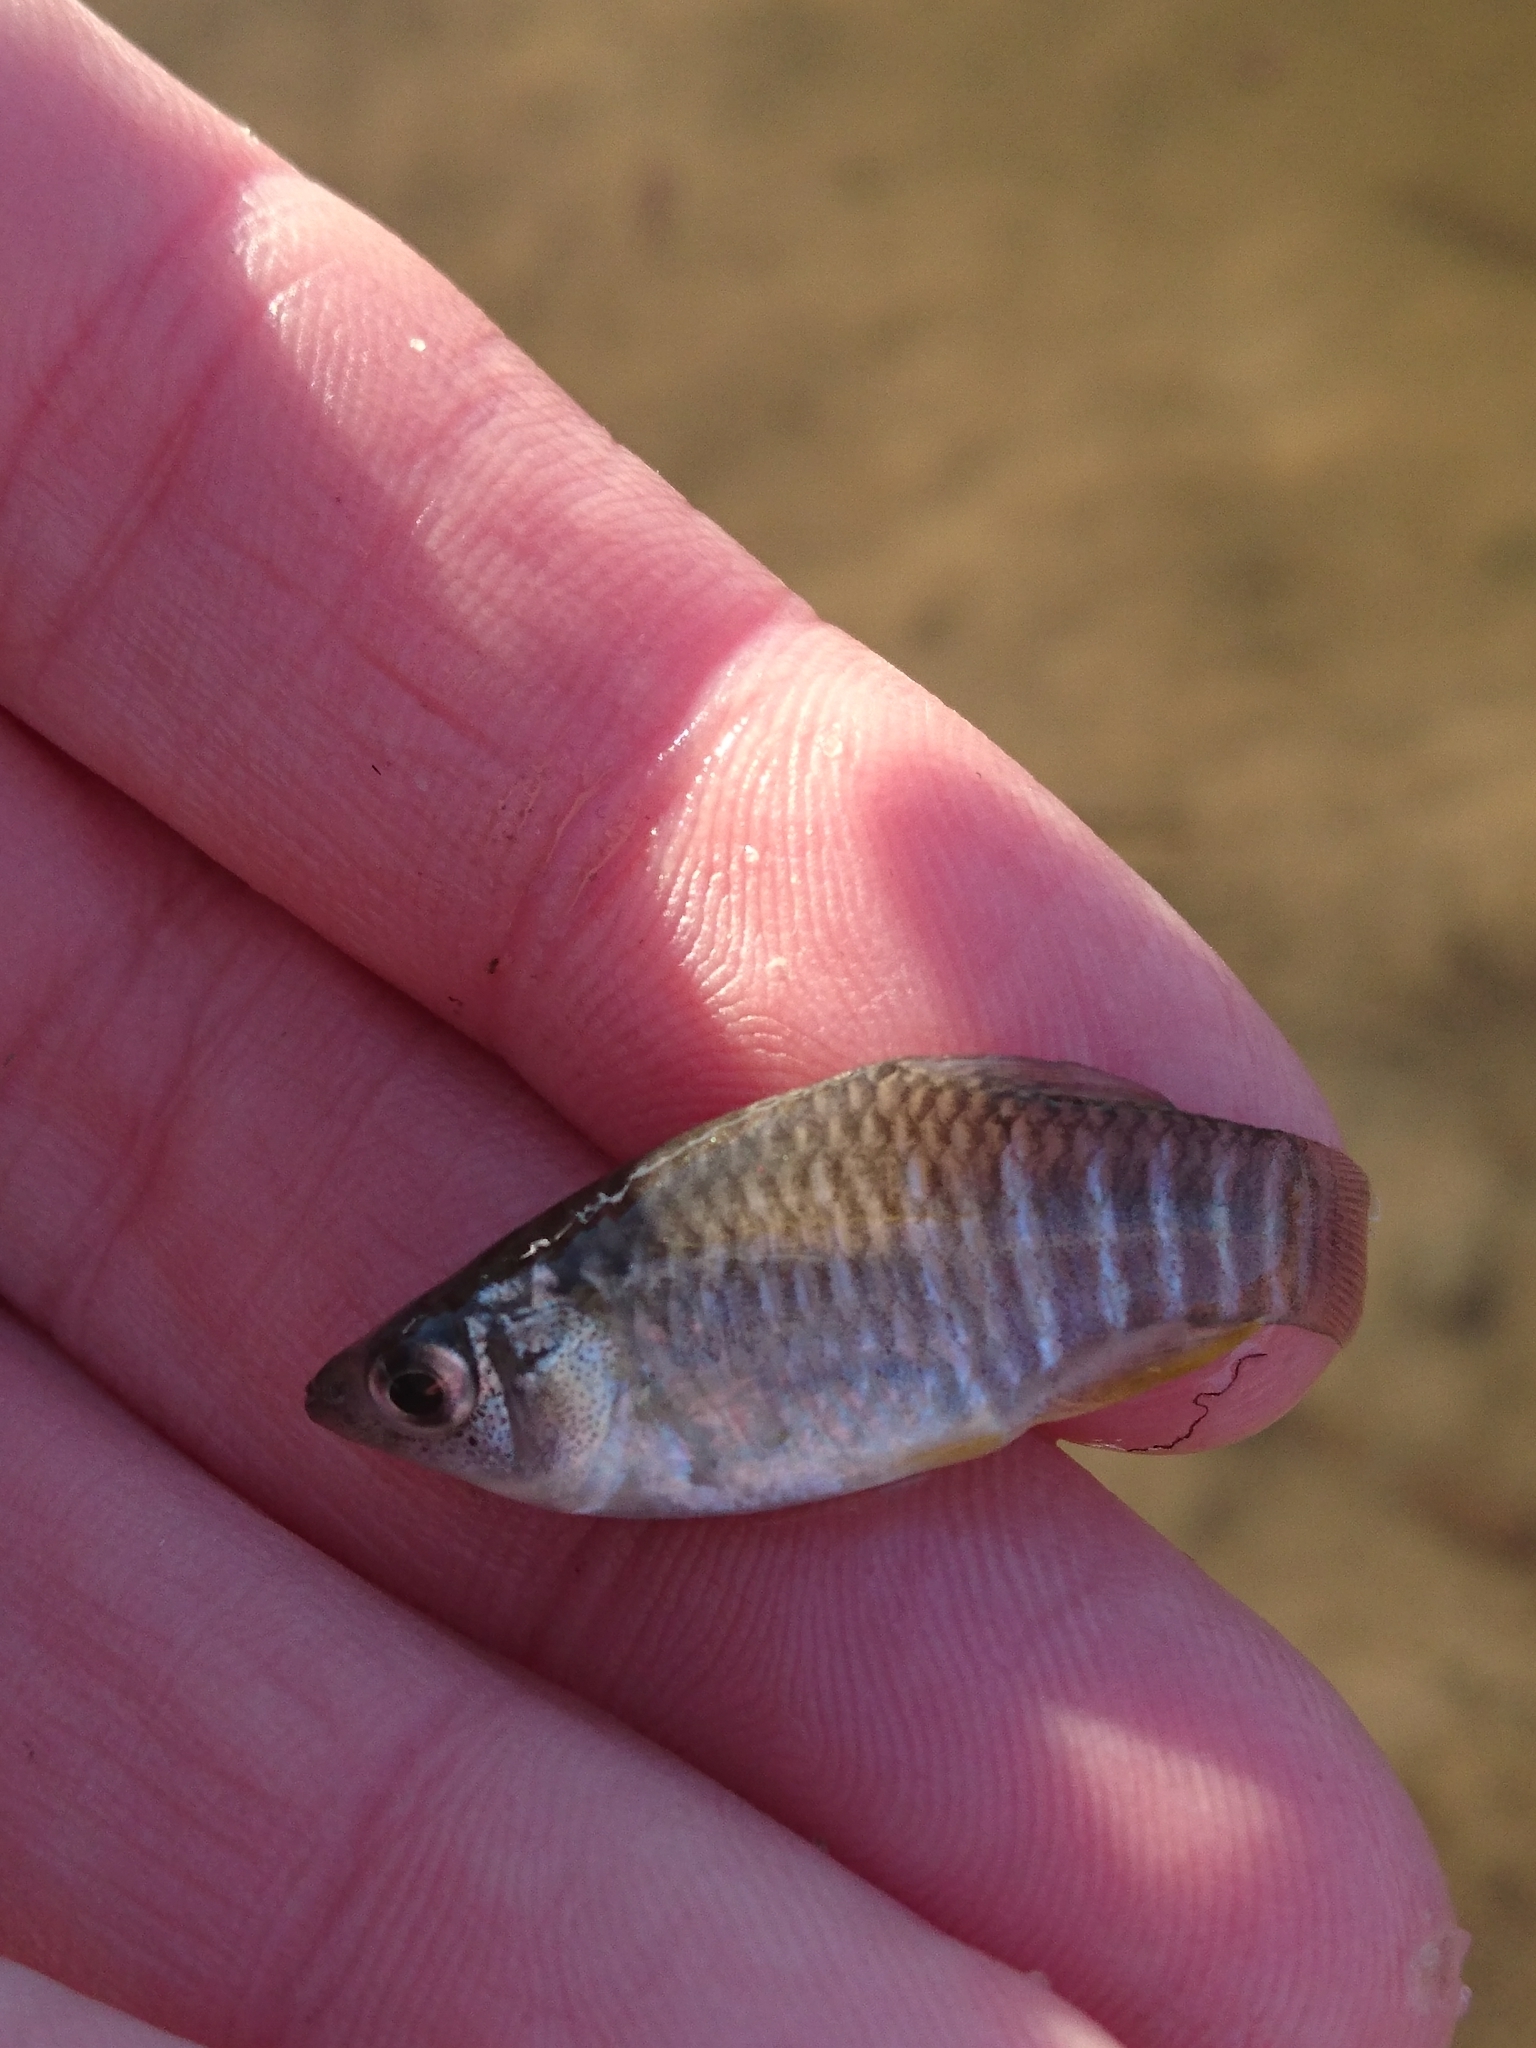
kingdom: Animalia
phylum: Chordata
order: Cyprinodontiformes
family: Fundulidae
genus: Fundulus
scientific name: Fundulus xenicus
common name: Diamond killifish
